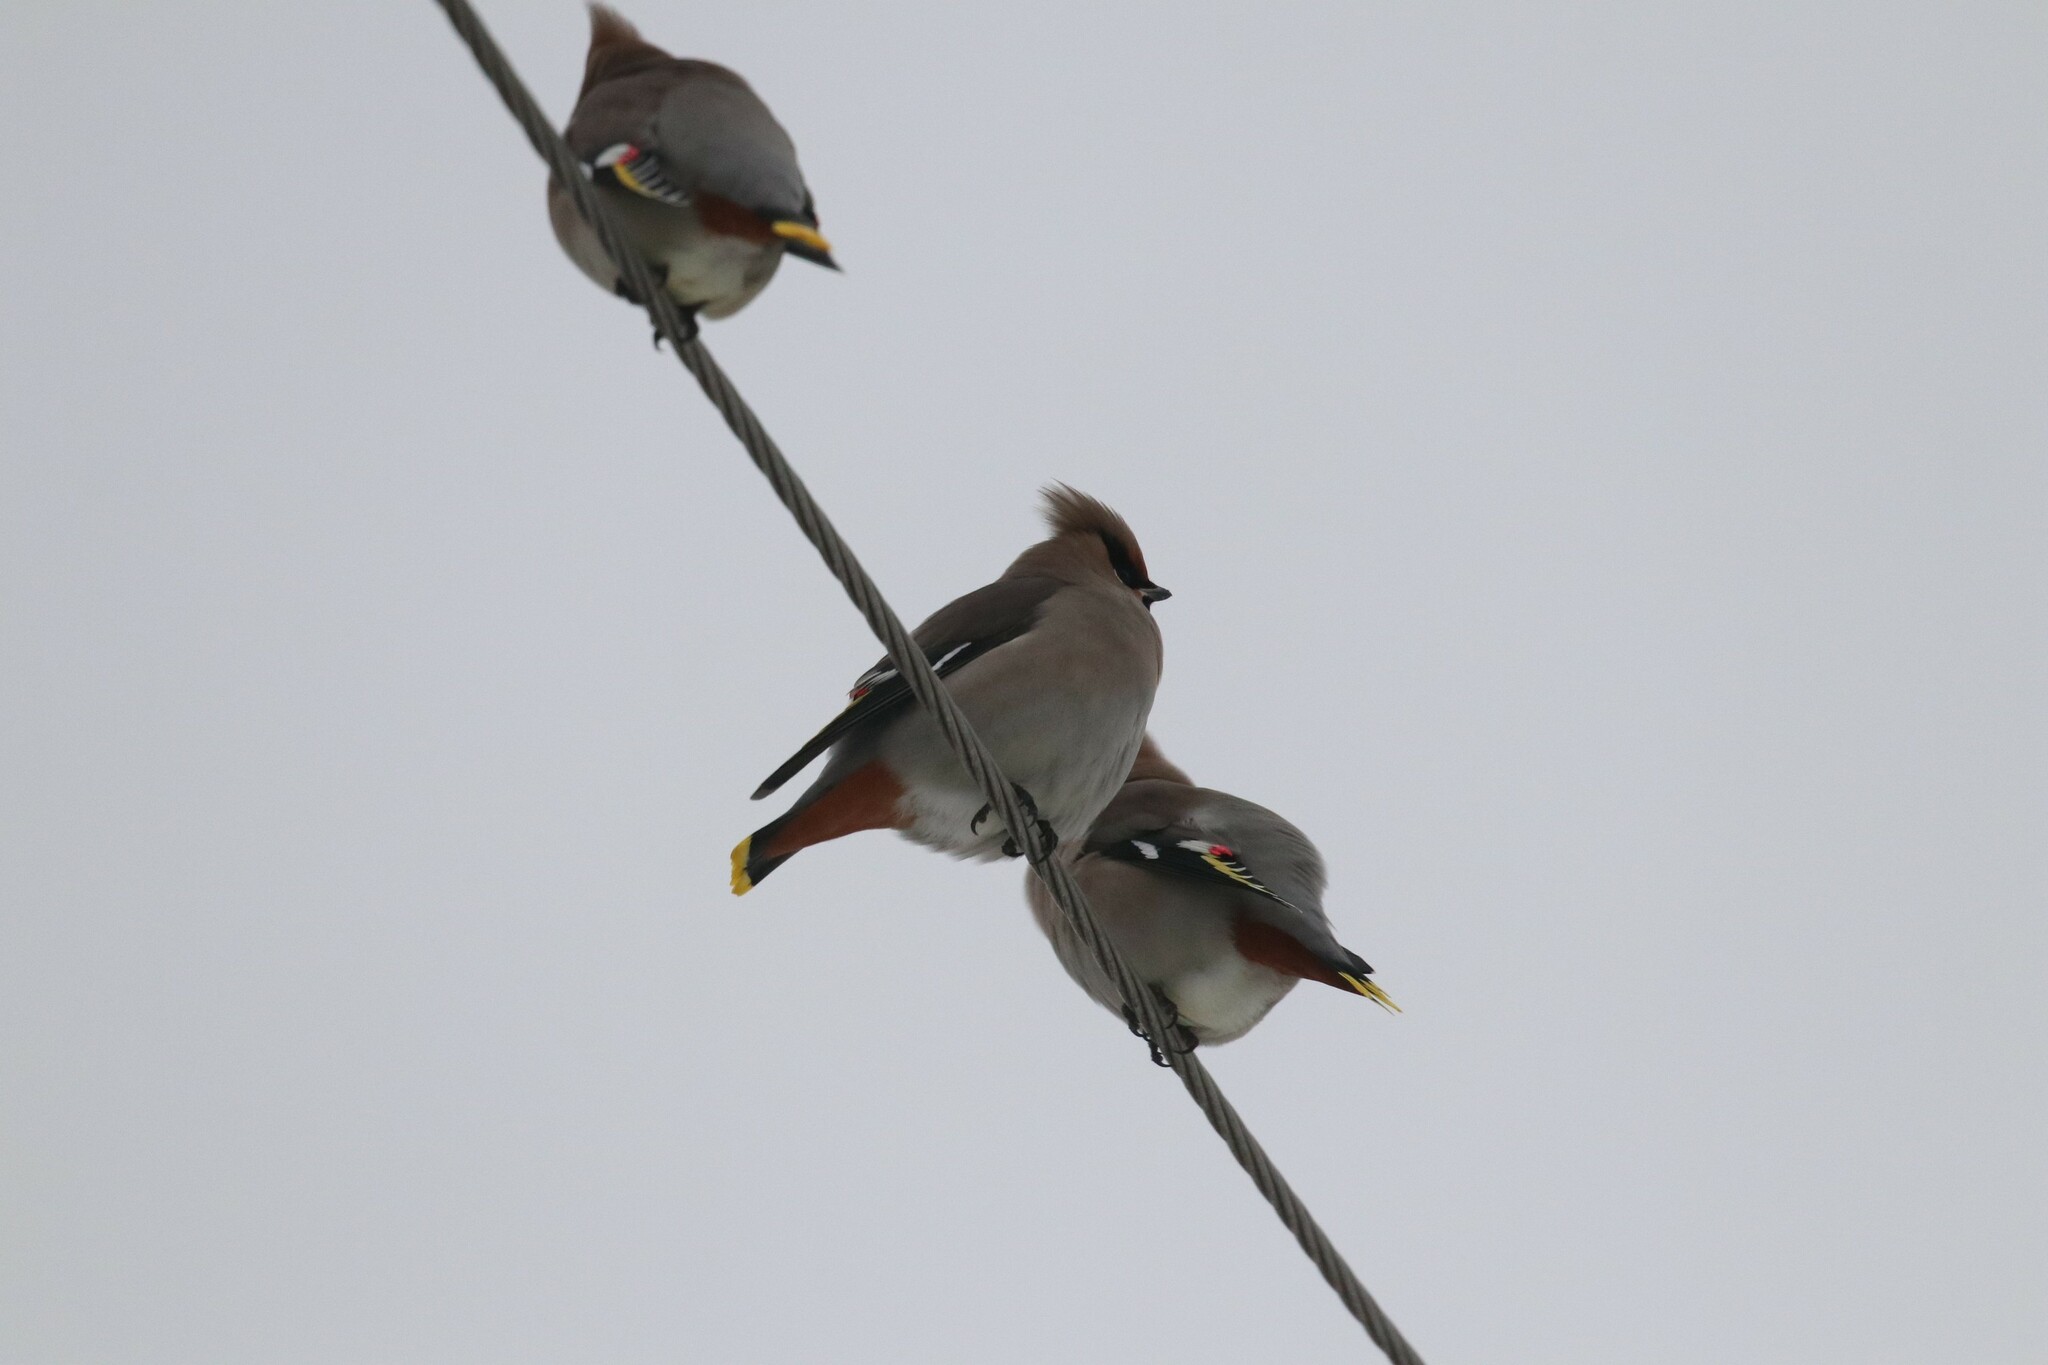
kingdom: Animalia
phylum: Chordata
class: Aves
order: Passeriformes
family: Bombycillidae
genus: Bombycilla
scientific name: Bombycilla garrulus
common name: Bohemian waxwing
